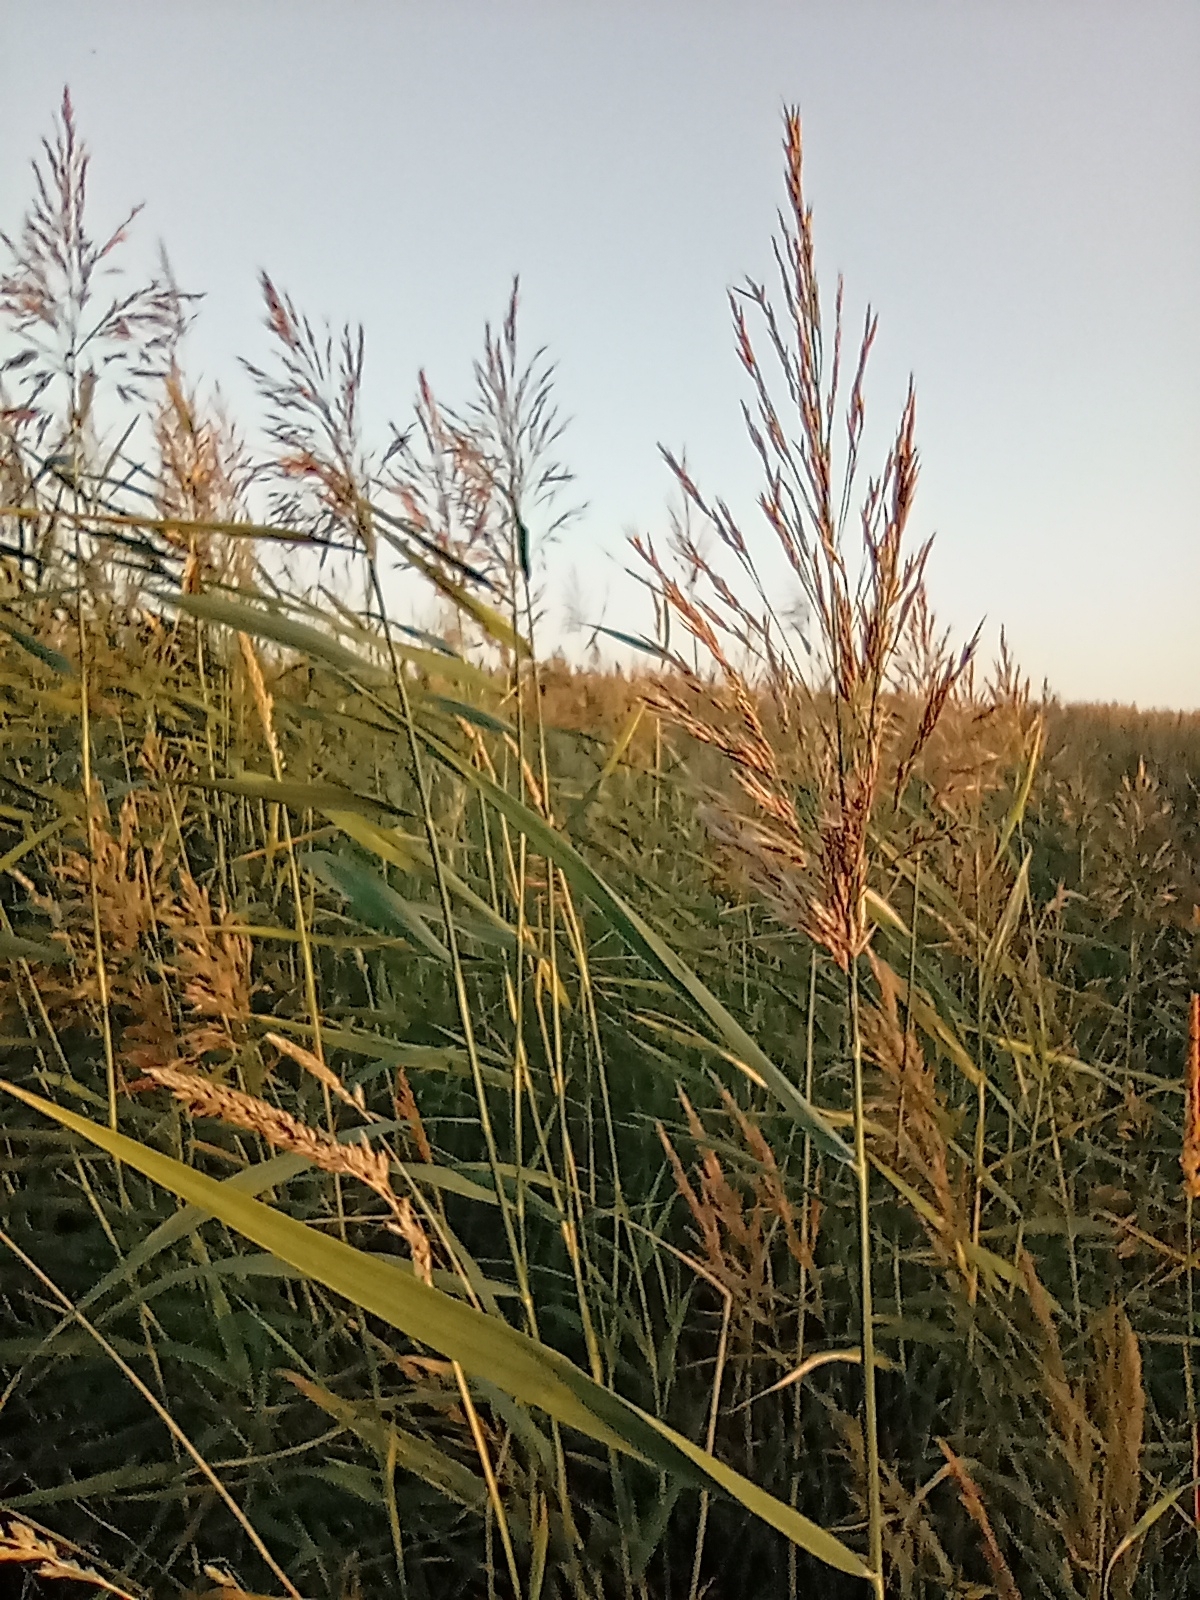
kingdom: Plantae
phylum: Tracheophyta
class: Liliopsida
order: Poales
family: Poaceae
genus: Phragmites
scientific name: Phragmites australis
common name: Common reed
